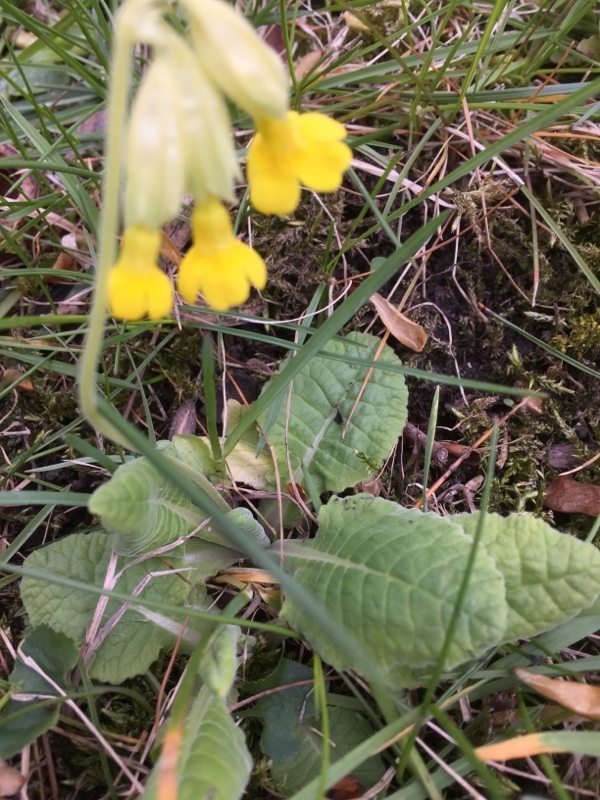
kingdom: Plantae
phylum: Tracheophyta
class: Magnoliopsida
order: Ericales
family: Primulaceae
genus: Primula
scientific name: Primula veris
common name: Cowslip
